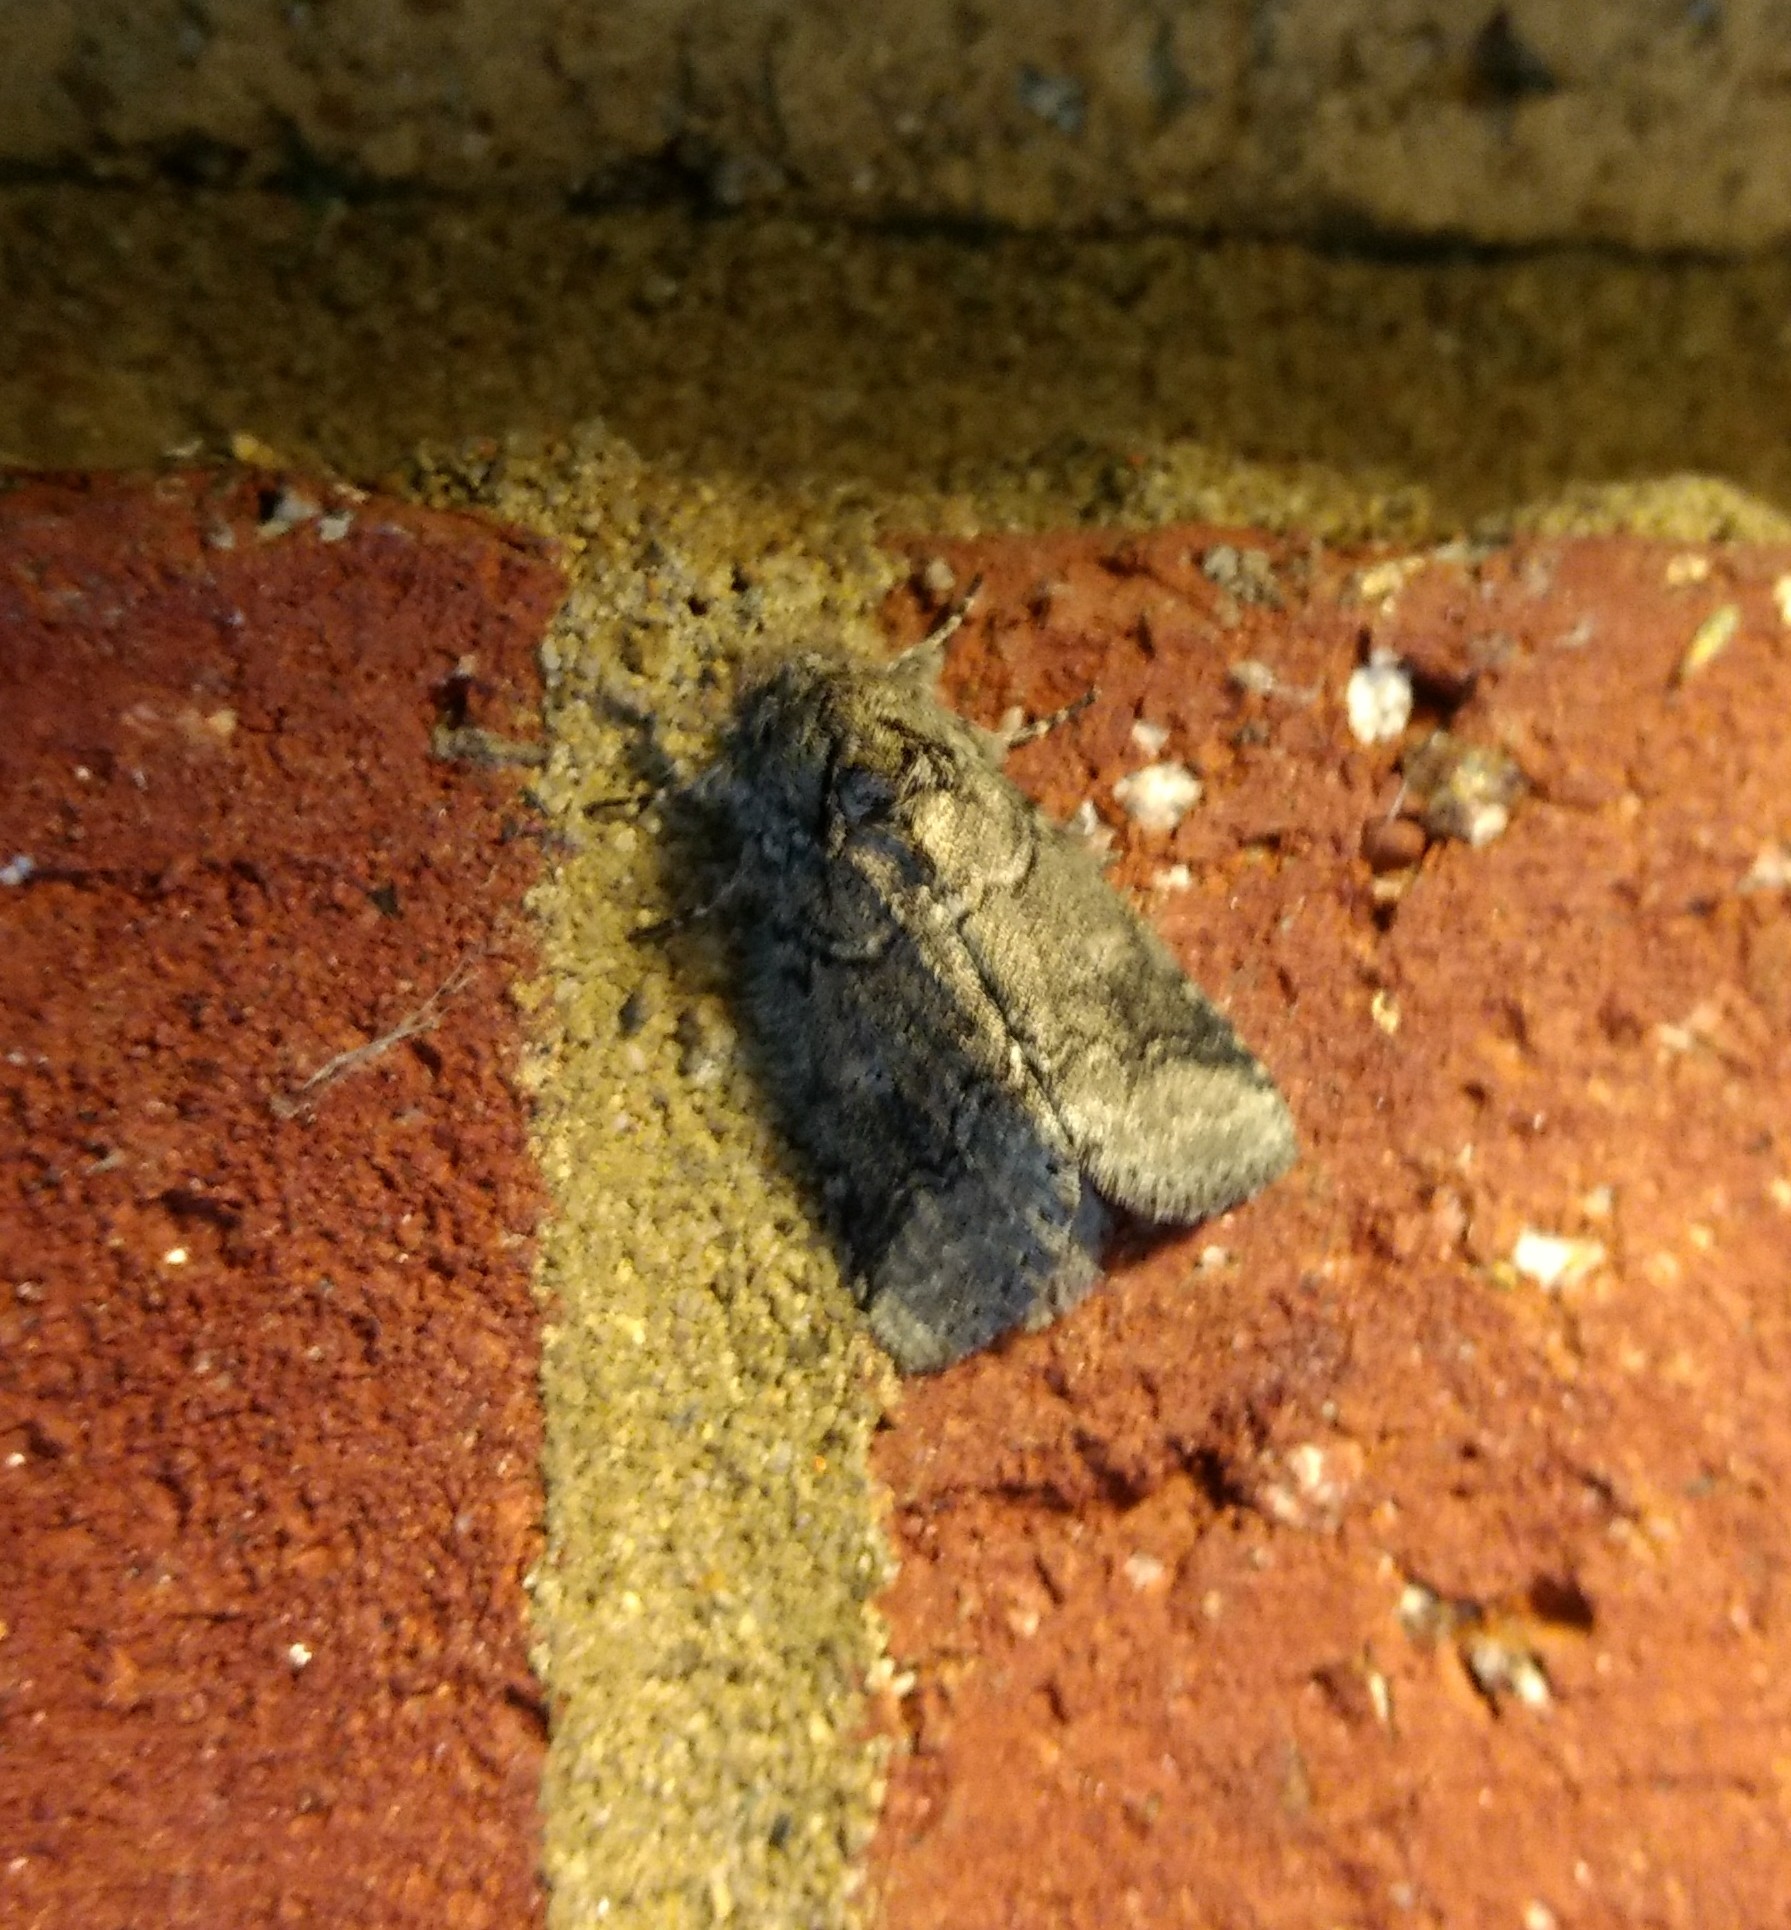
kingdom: Animalia
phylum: Arthropoda
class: Insecta
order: Lepidoptera
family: Notodontidae
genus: Lochmaeus
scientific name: Lochmaeus bilineata
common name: Double-lined prominent
